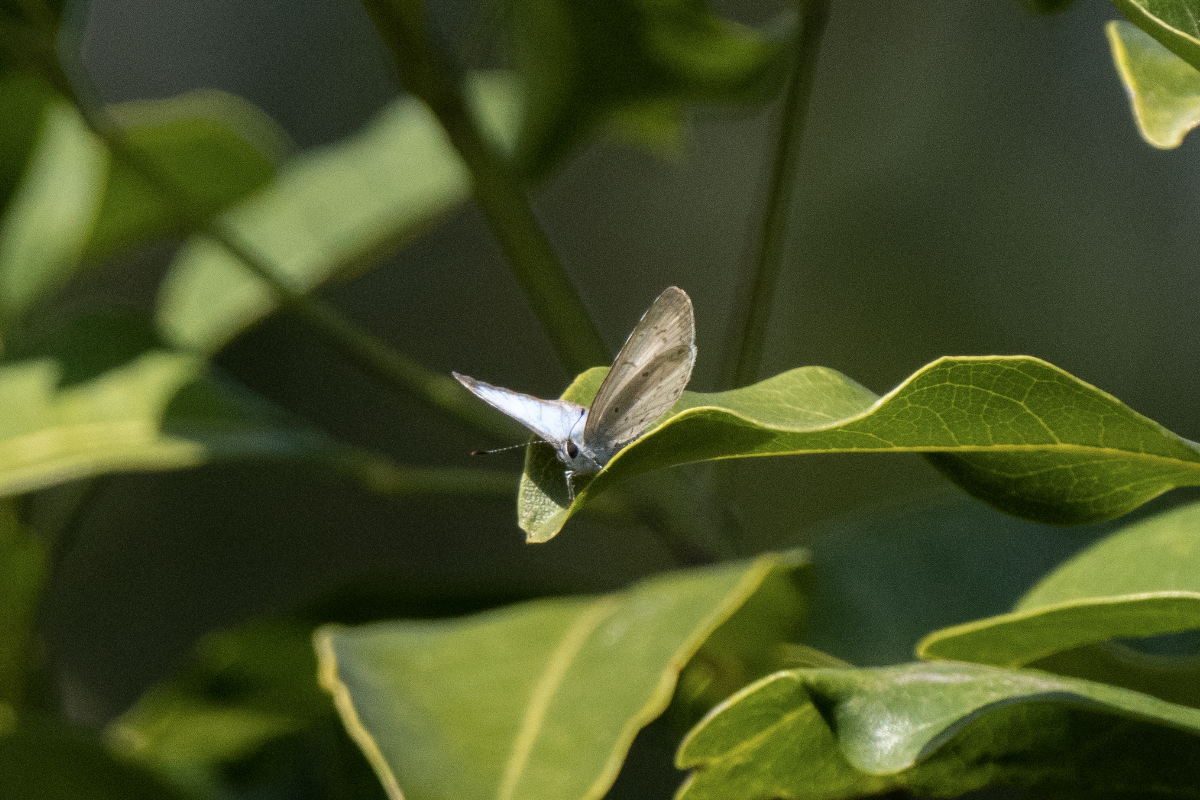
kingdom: Animalia
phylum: Arthropoda
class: Insecta
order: Lepidoptera
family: Lycaenidae
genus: Acytolepis
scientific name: Acytolepis puspa
